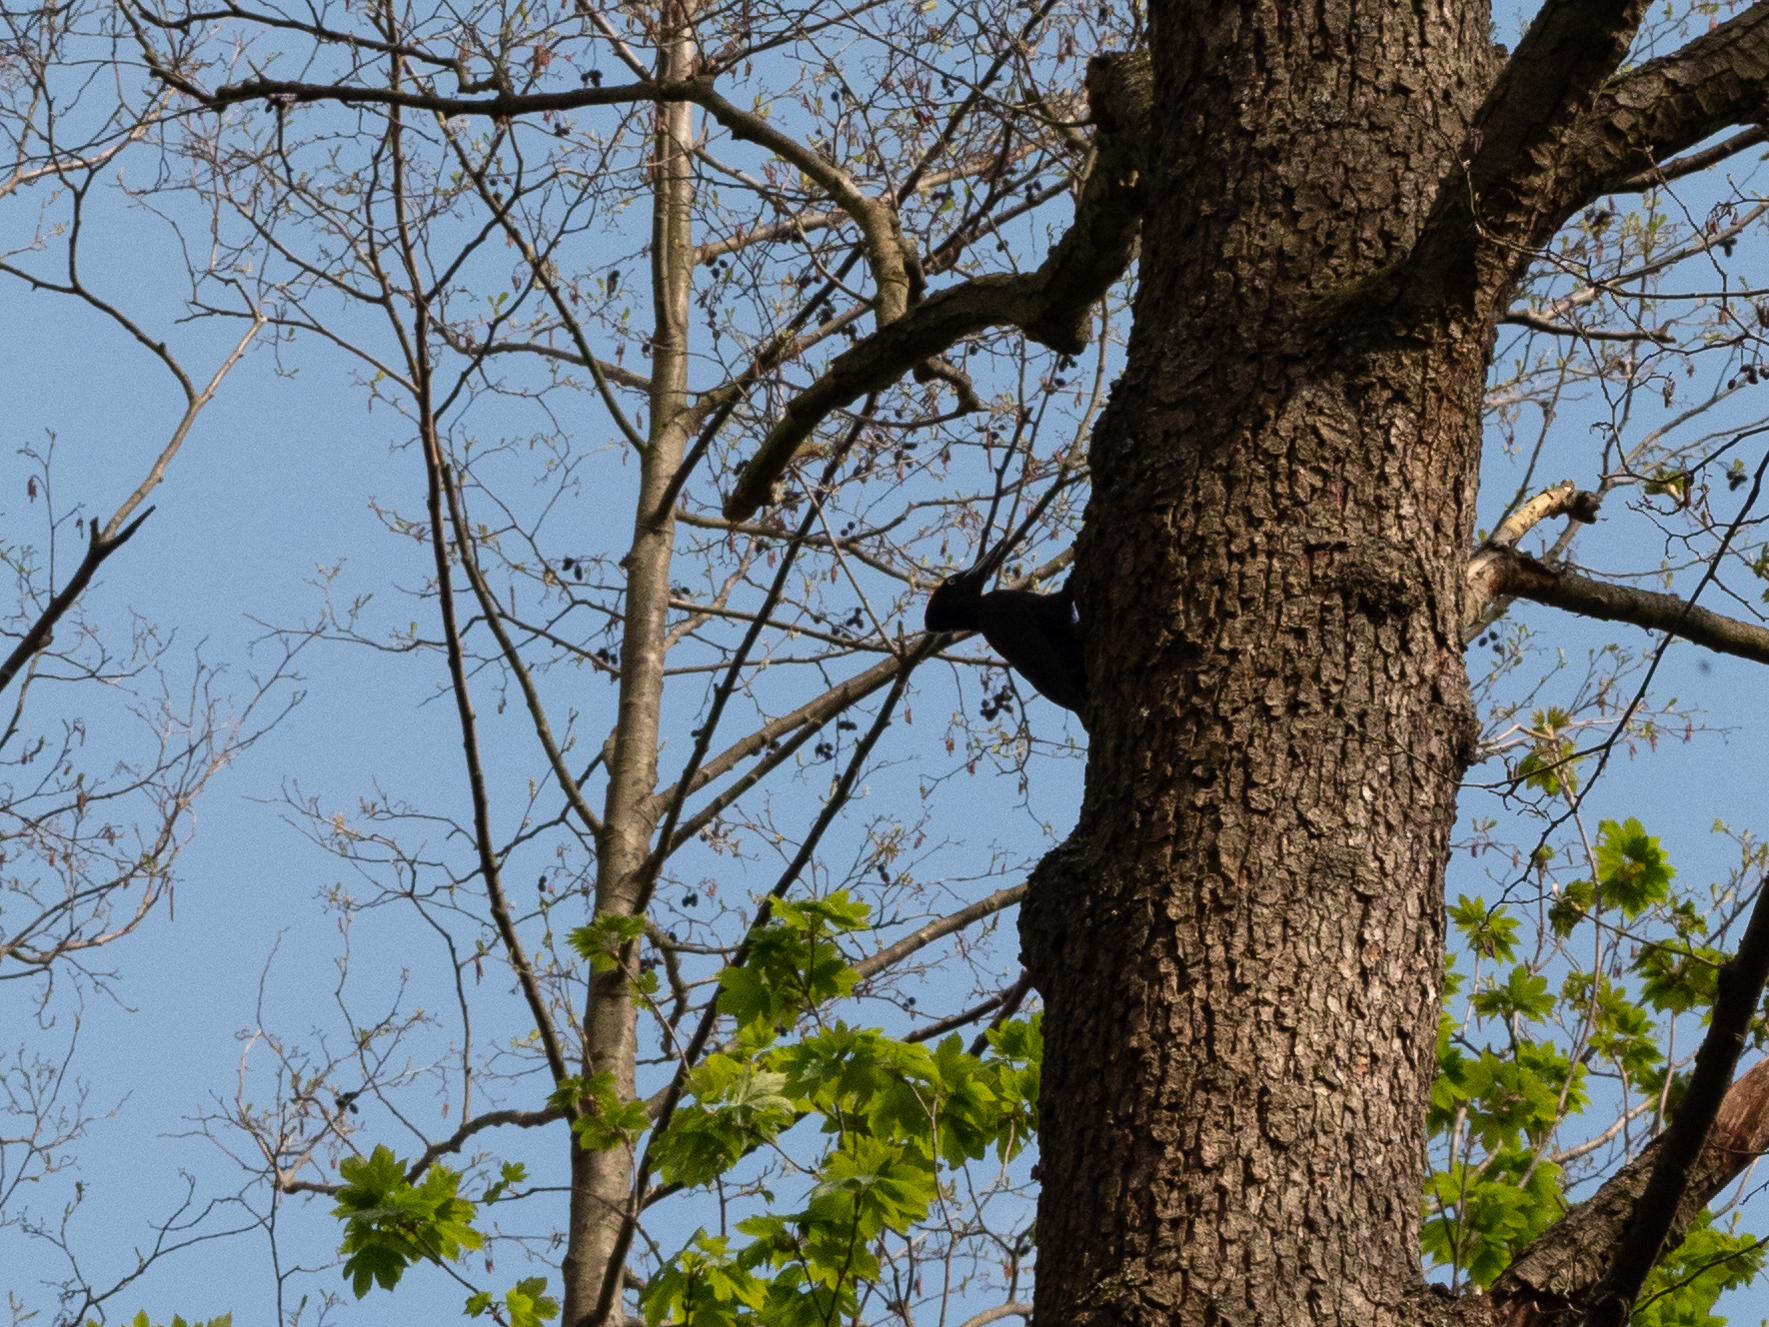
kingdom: Animalia
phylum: Chordata
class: Aves
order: Piciformes
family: Picidae
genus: Dryocopus
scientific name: Dryocopus martius
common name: Black woodpecker
